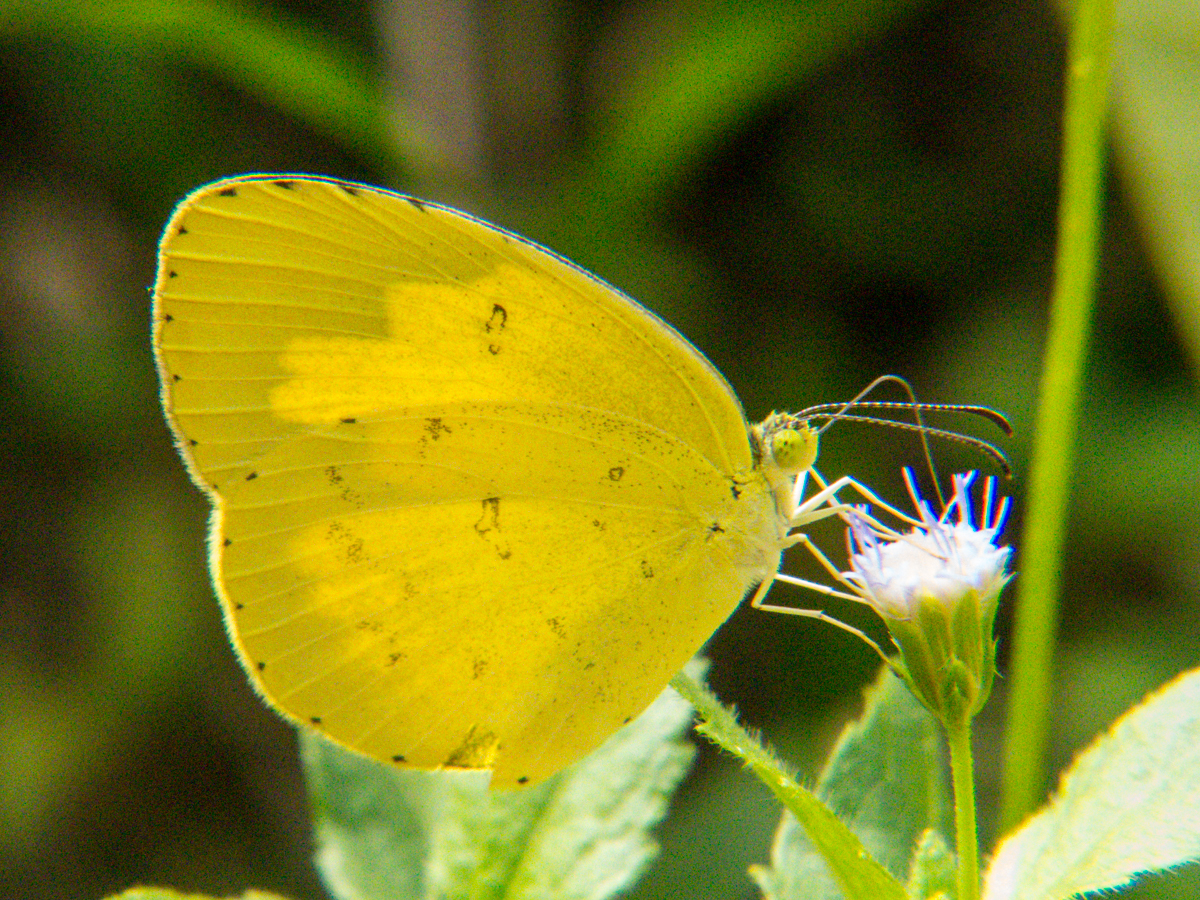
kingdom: Animalia
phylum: Arthropoda
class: Insecta
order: Lepidoptera
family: Pieridae
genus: Eurema
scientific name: Eurema hecabe
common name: Pale grass yellow
